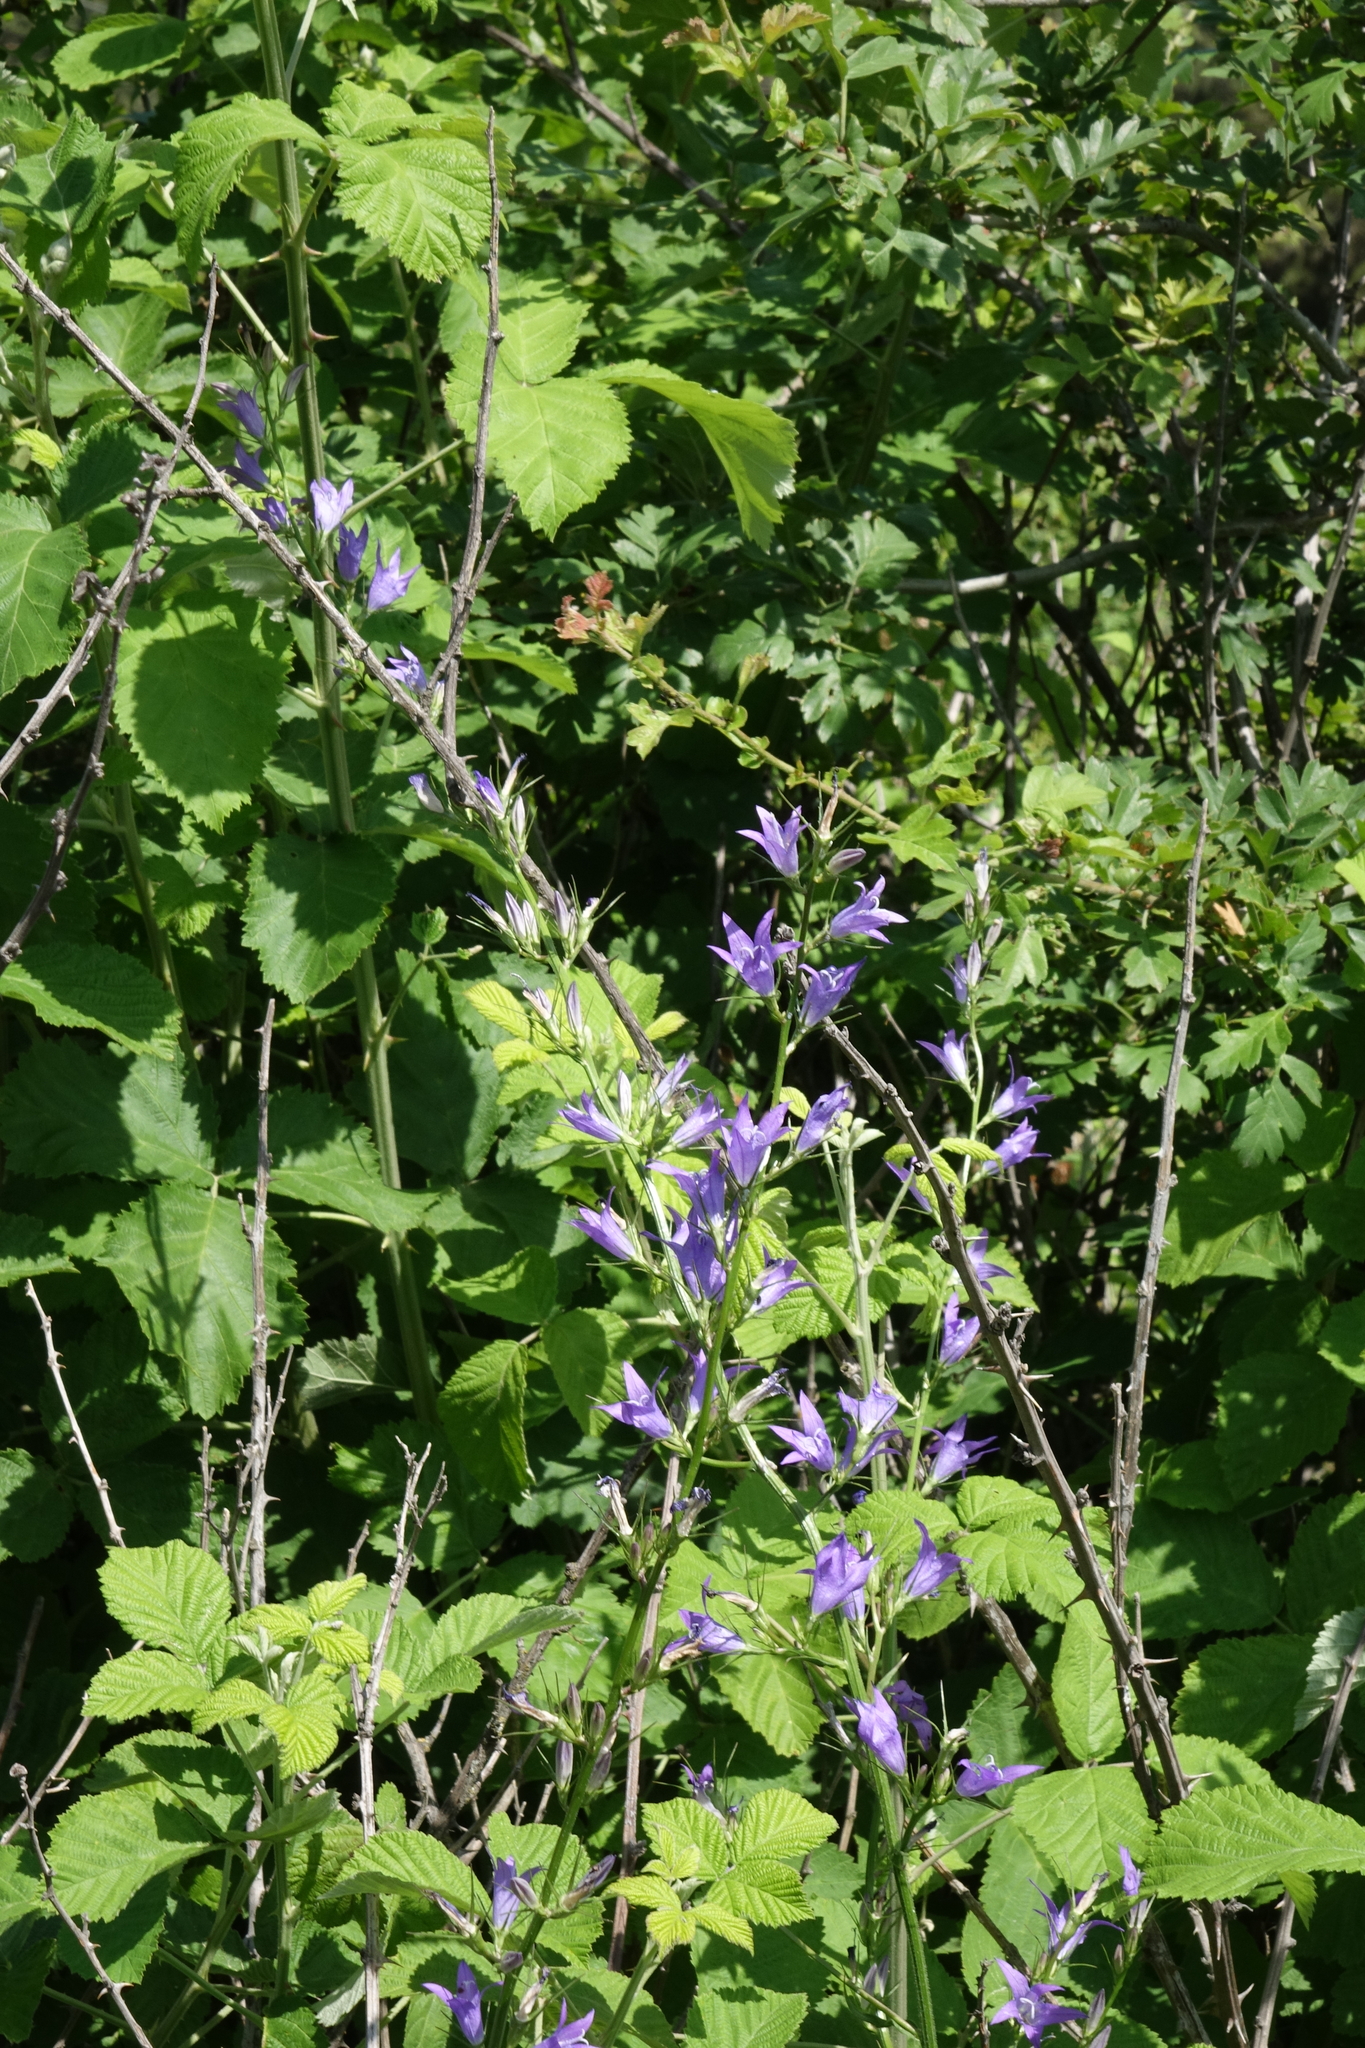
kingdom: Plantae
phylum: Tracheophyta
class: Magnoliopsida
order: Asterales
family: Campanulaceae
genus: Campanula
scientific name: Campanula rapunculus
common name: Rampion bellflower
